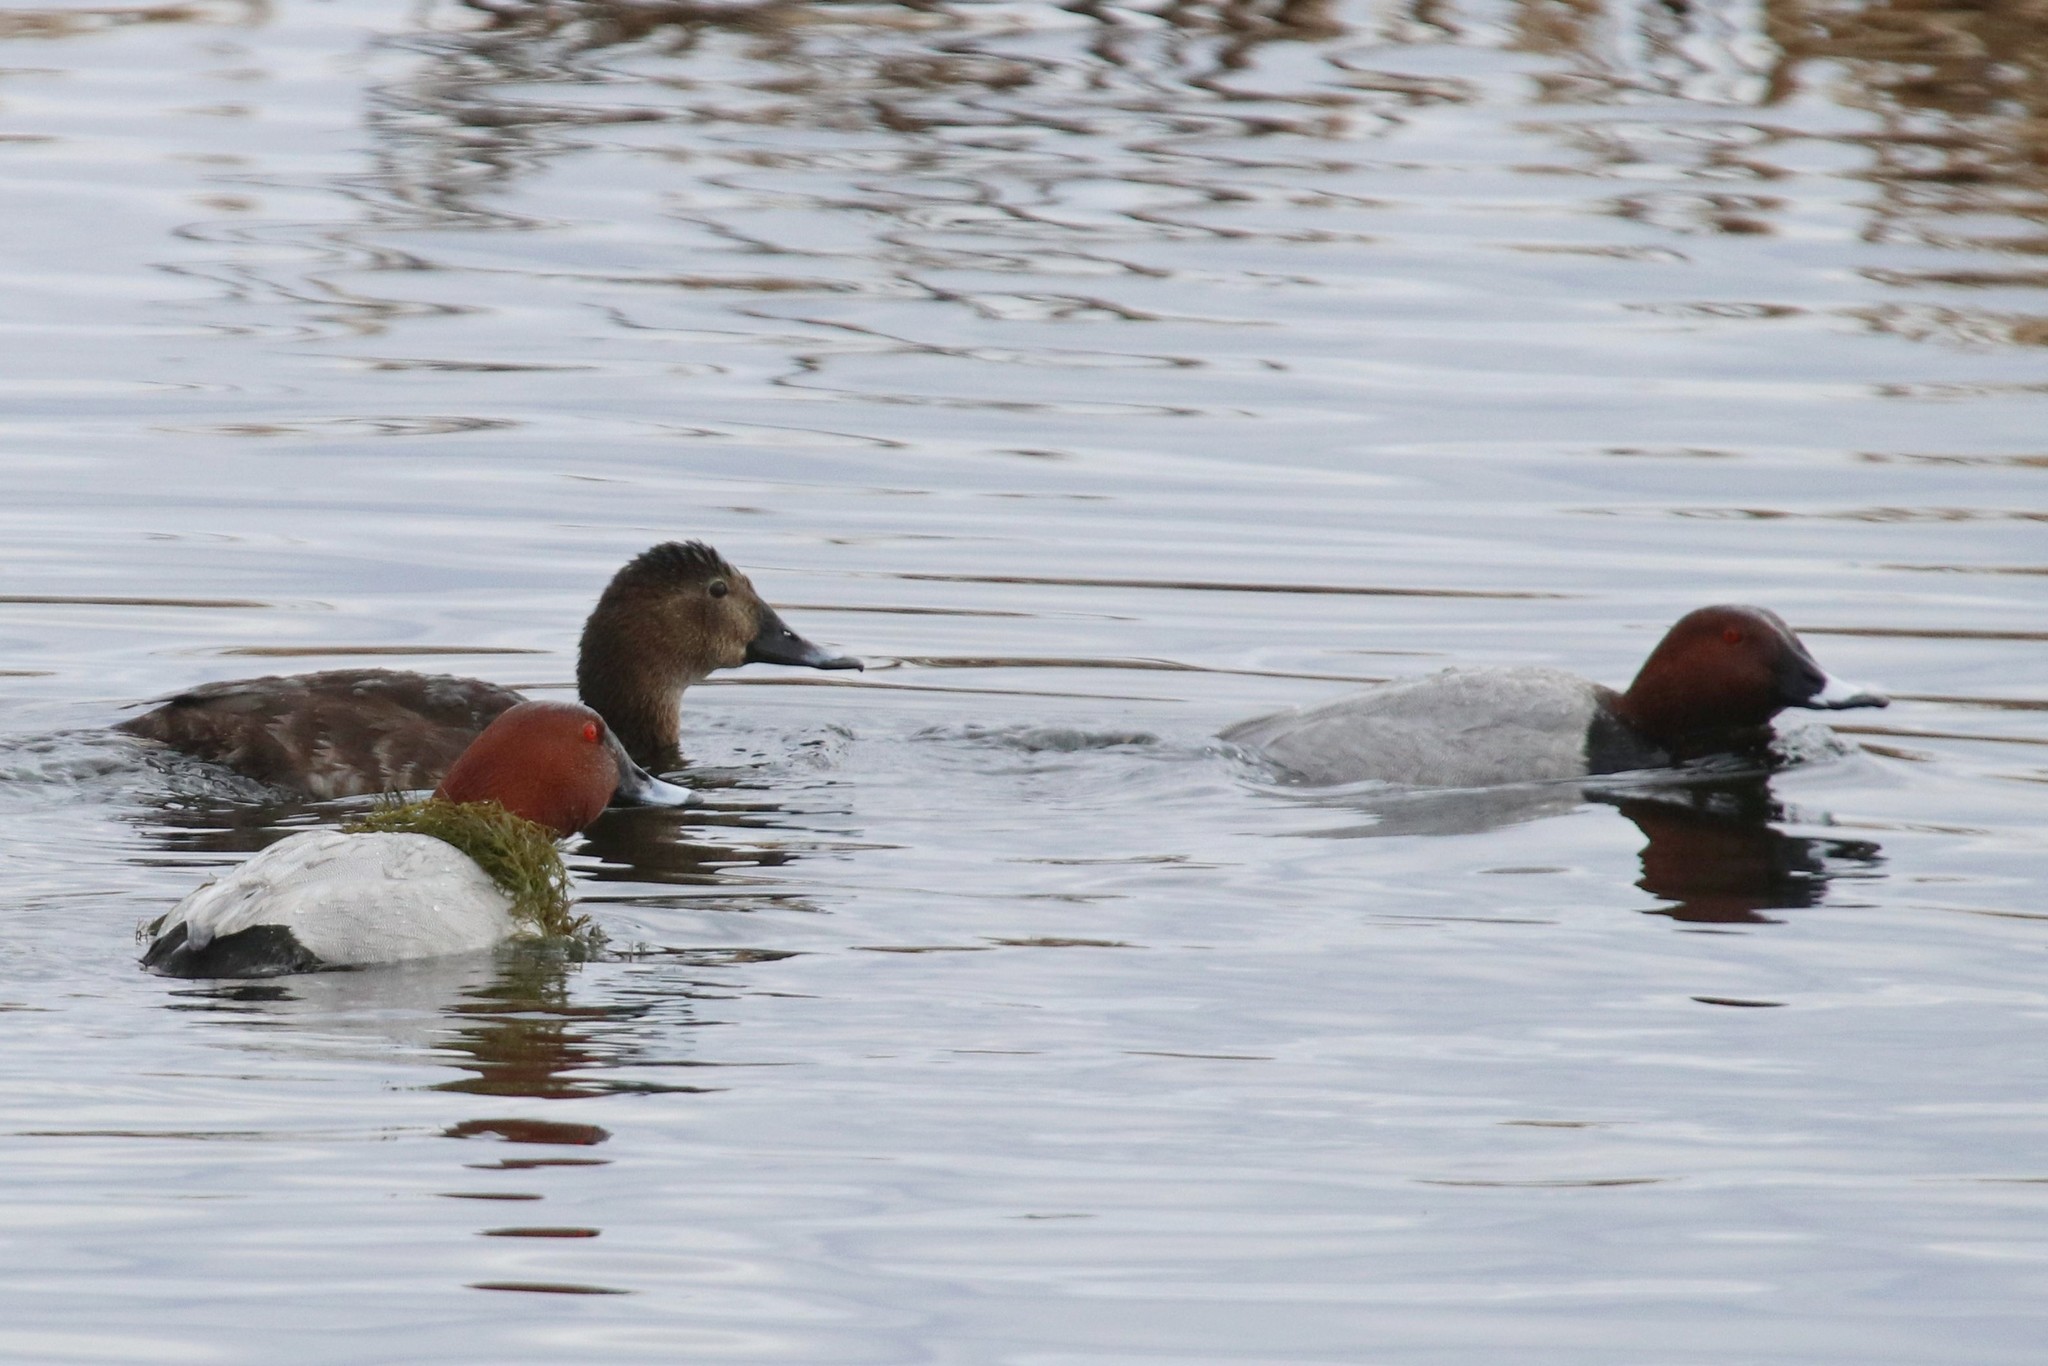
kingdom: Animalia
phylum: Chordata
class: Aves
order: Anseriformes
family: Anatidae
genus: Aythya
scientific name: Aythya ferina
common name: Common pochard
